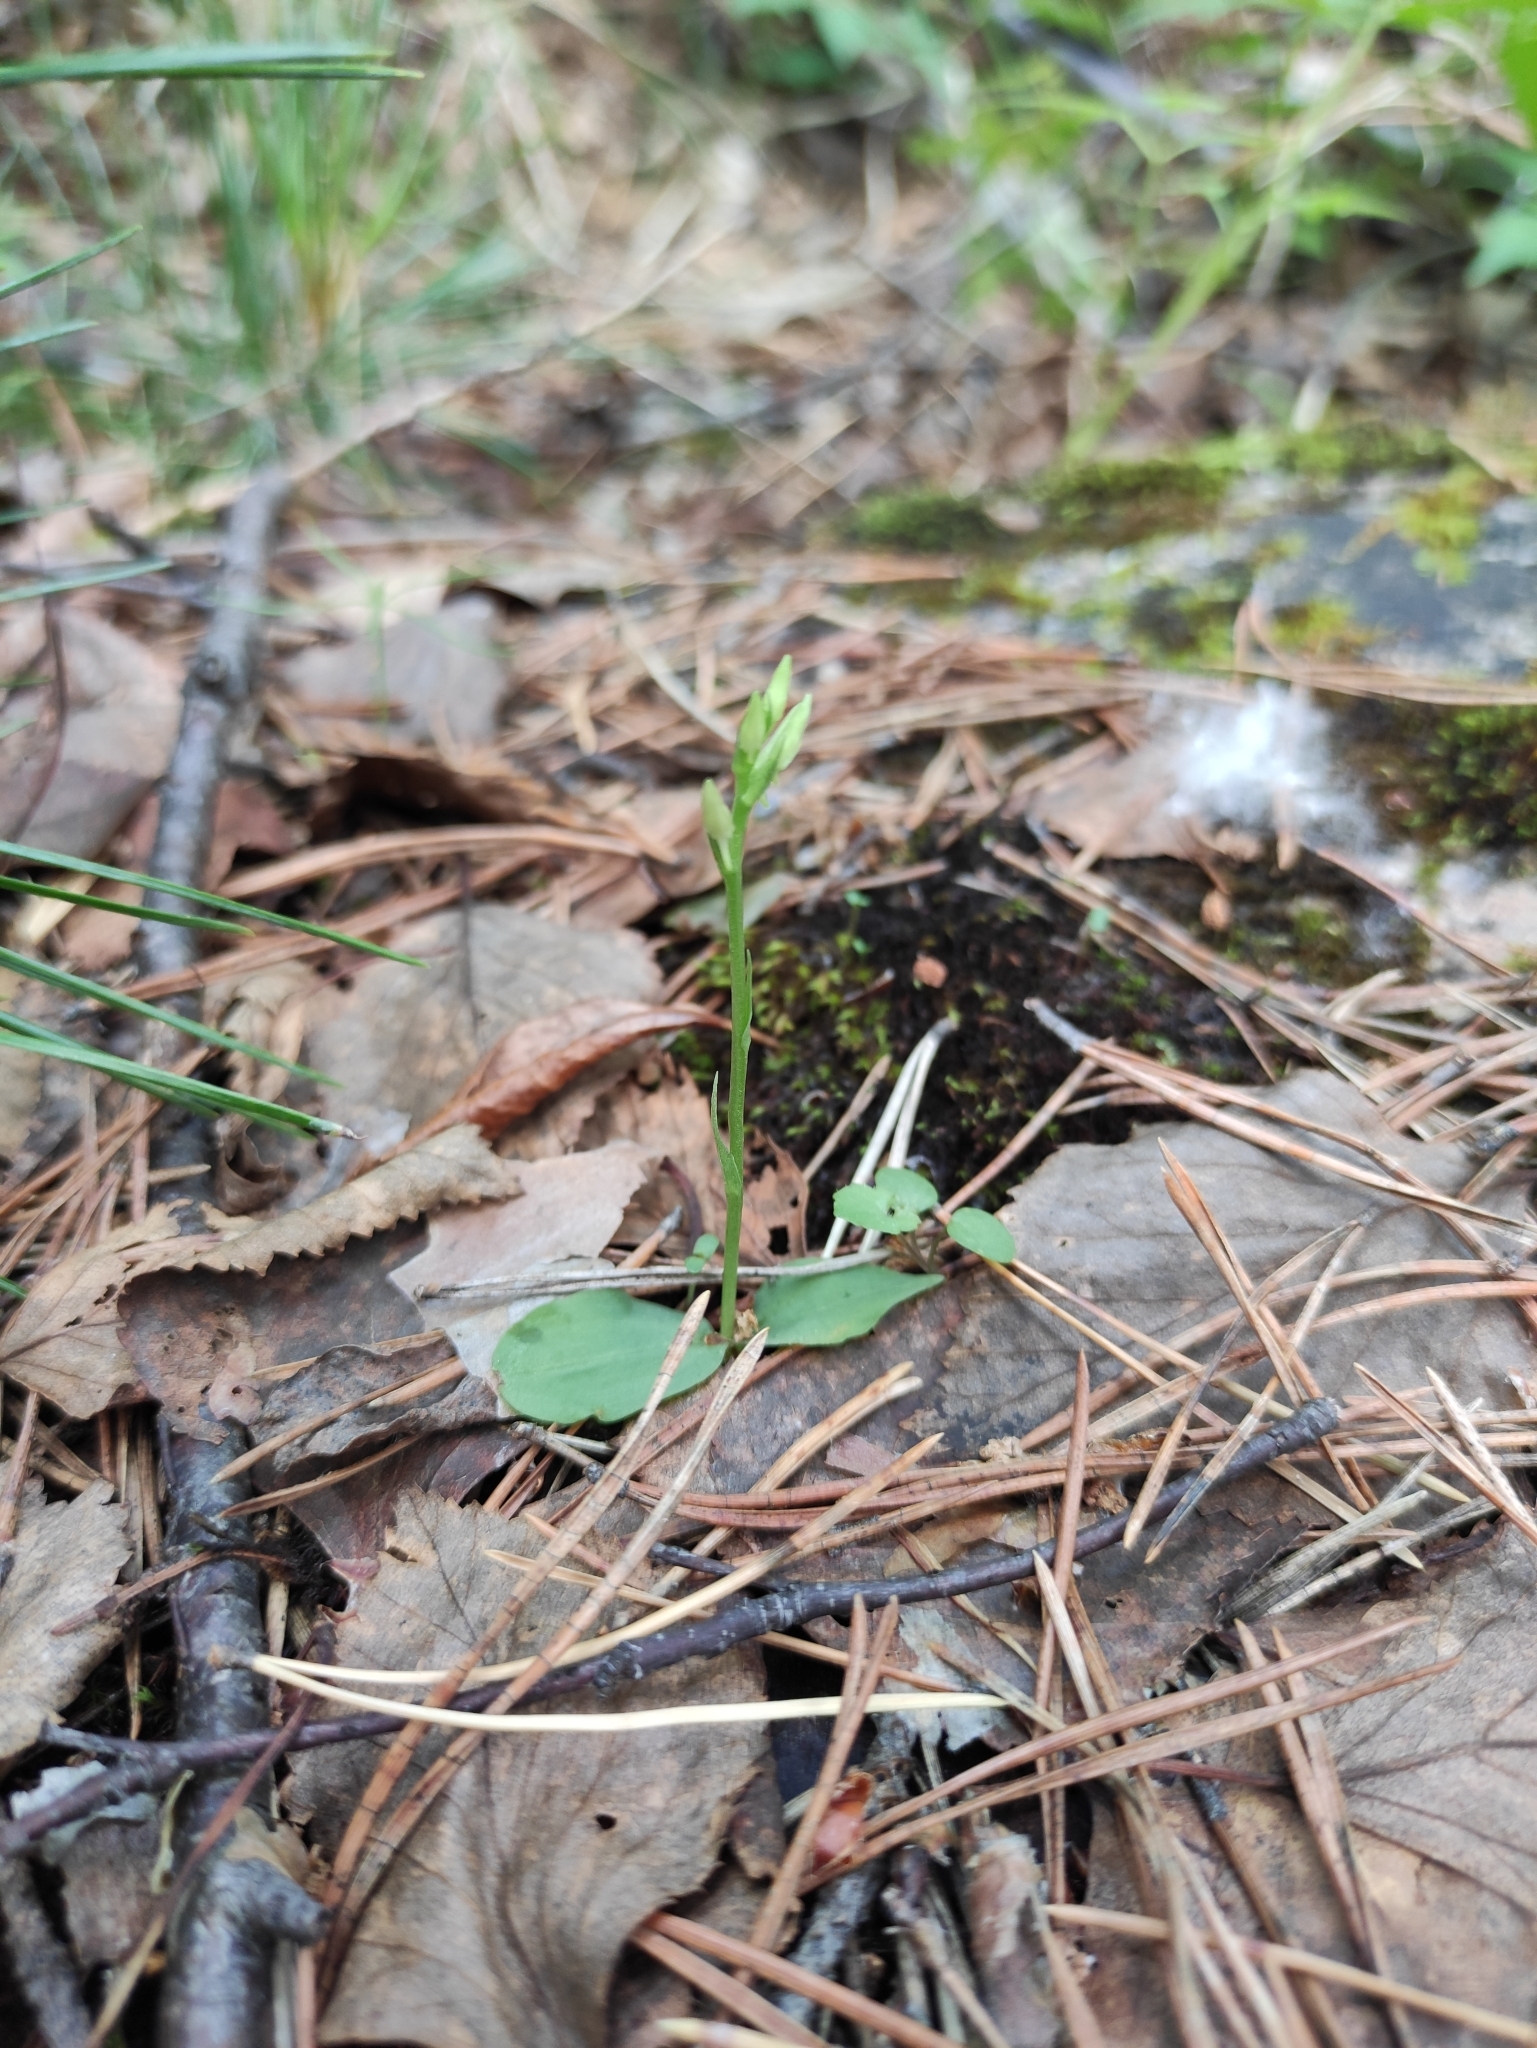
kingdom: Plantae
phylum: Tracheophyta
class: Liliopsida
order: Asparagales
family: Orchidaceae
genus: Hemipilia
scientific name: Hemipilia cucullata
